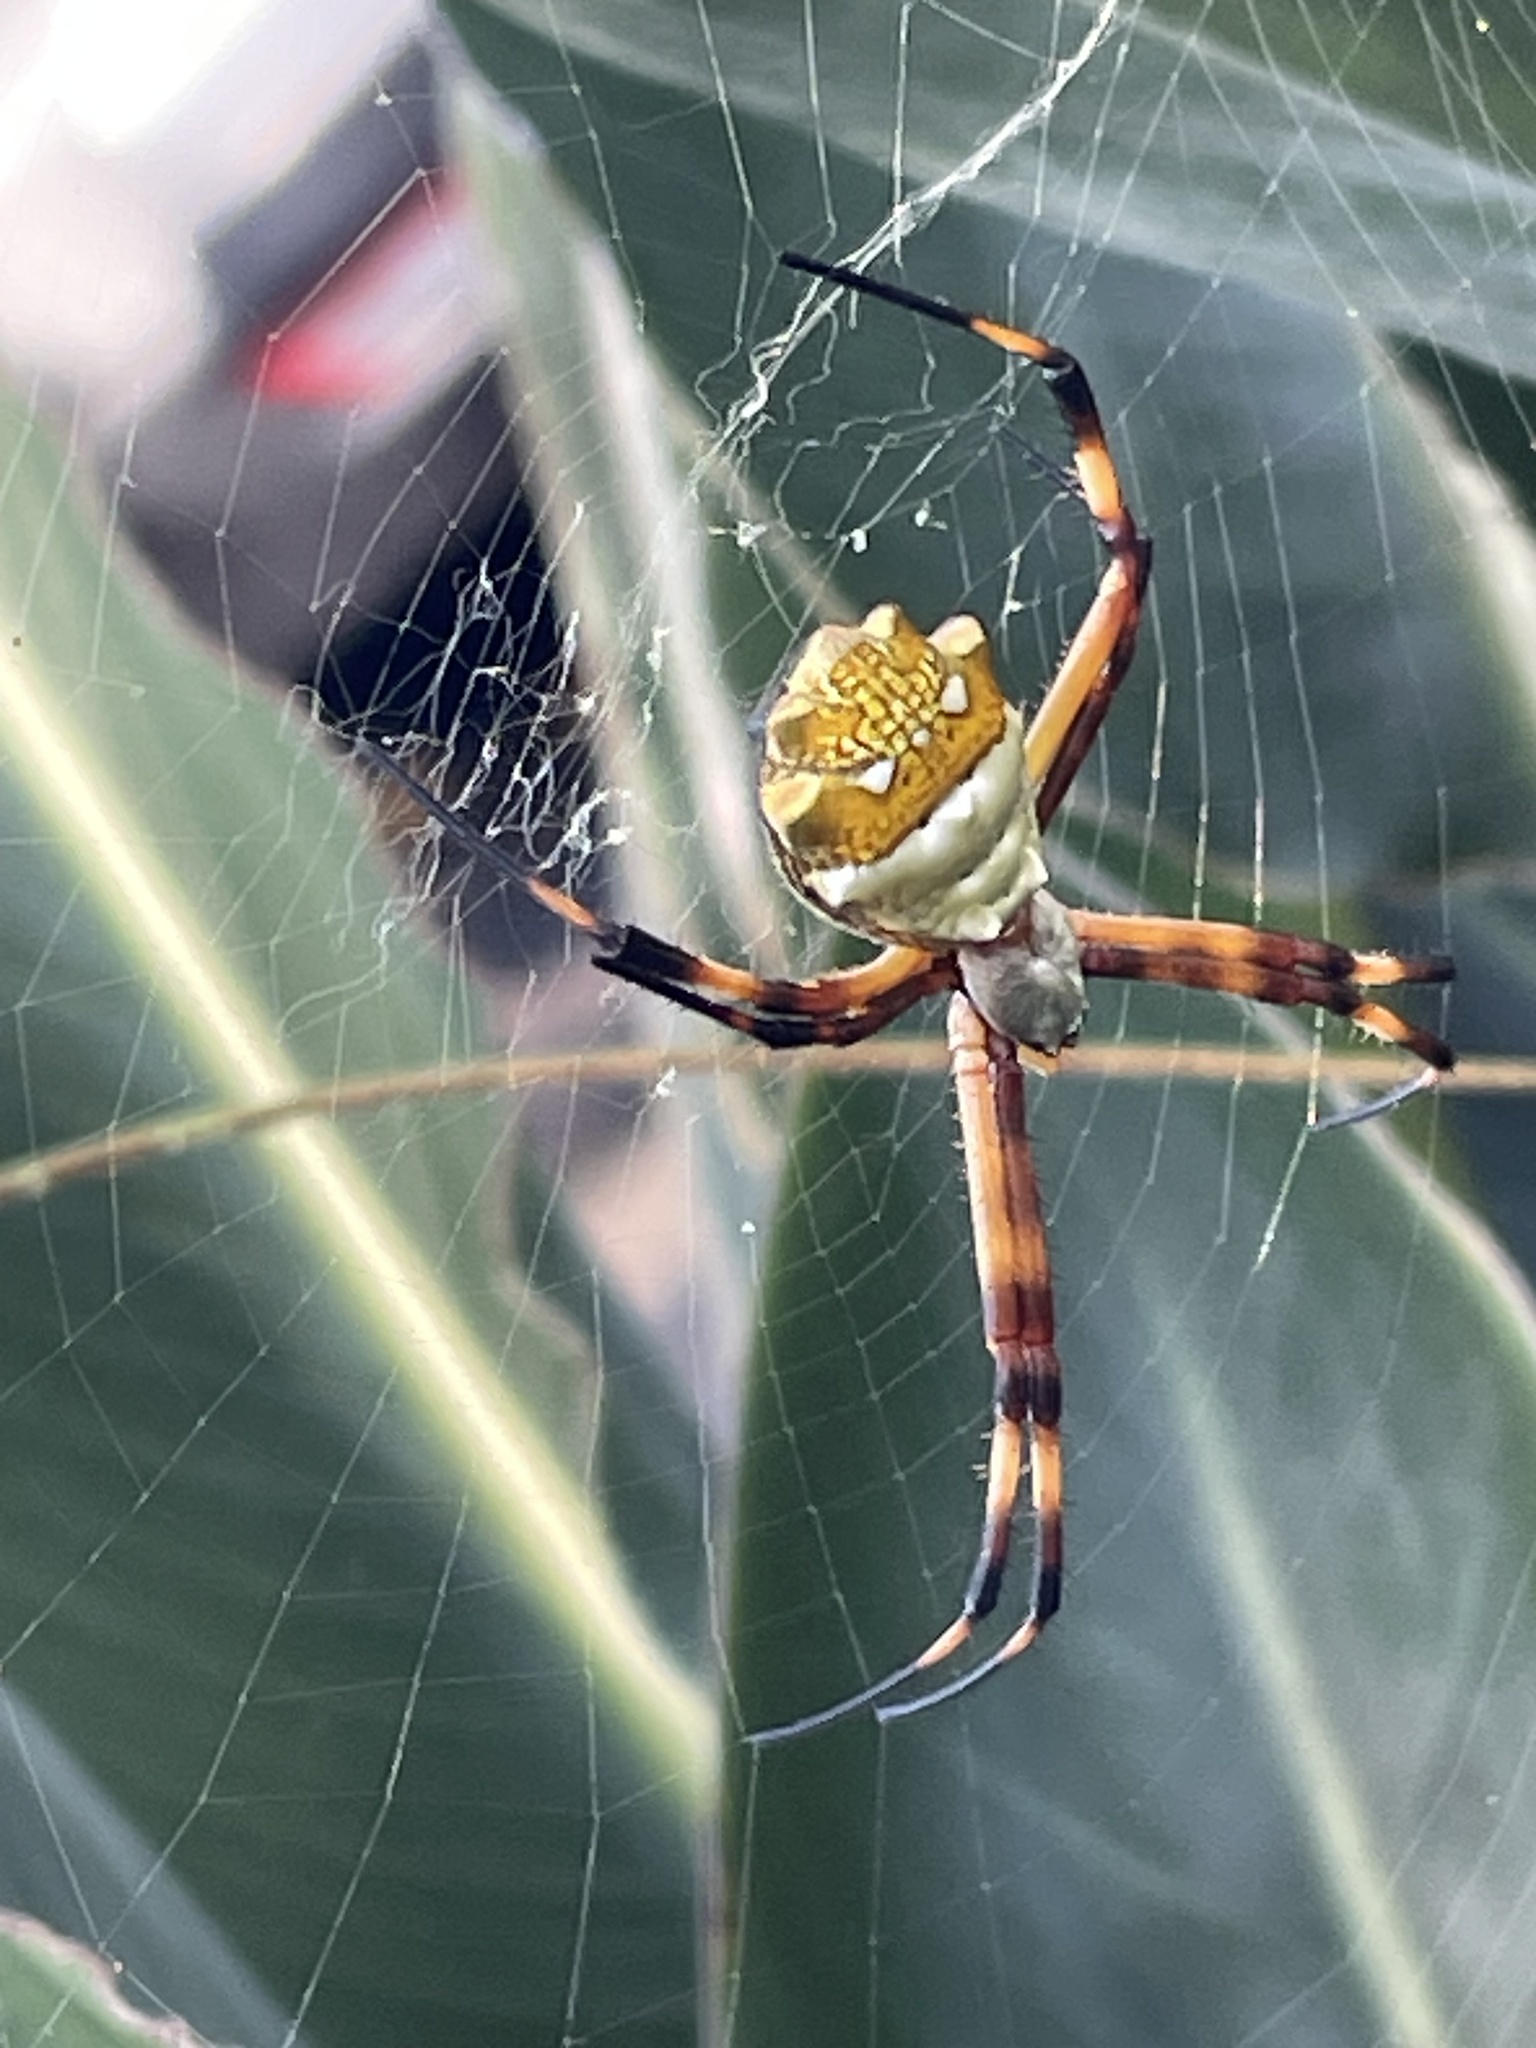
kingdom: Animalia
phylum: Arthropoda
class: Arachnida
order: Araneae
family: Araneidae
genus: Argiope
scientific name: Argiope argentata
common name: Orb weavers
